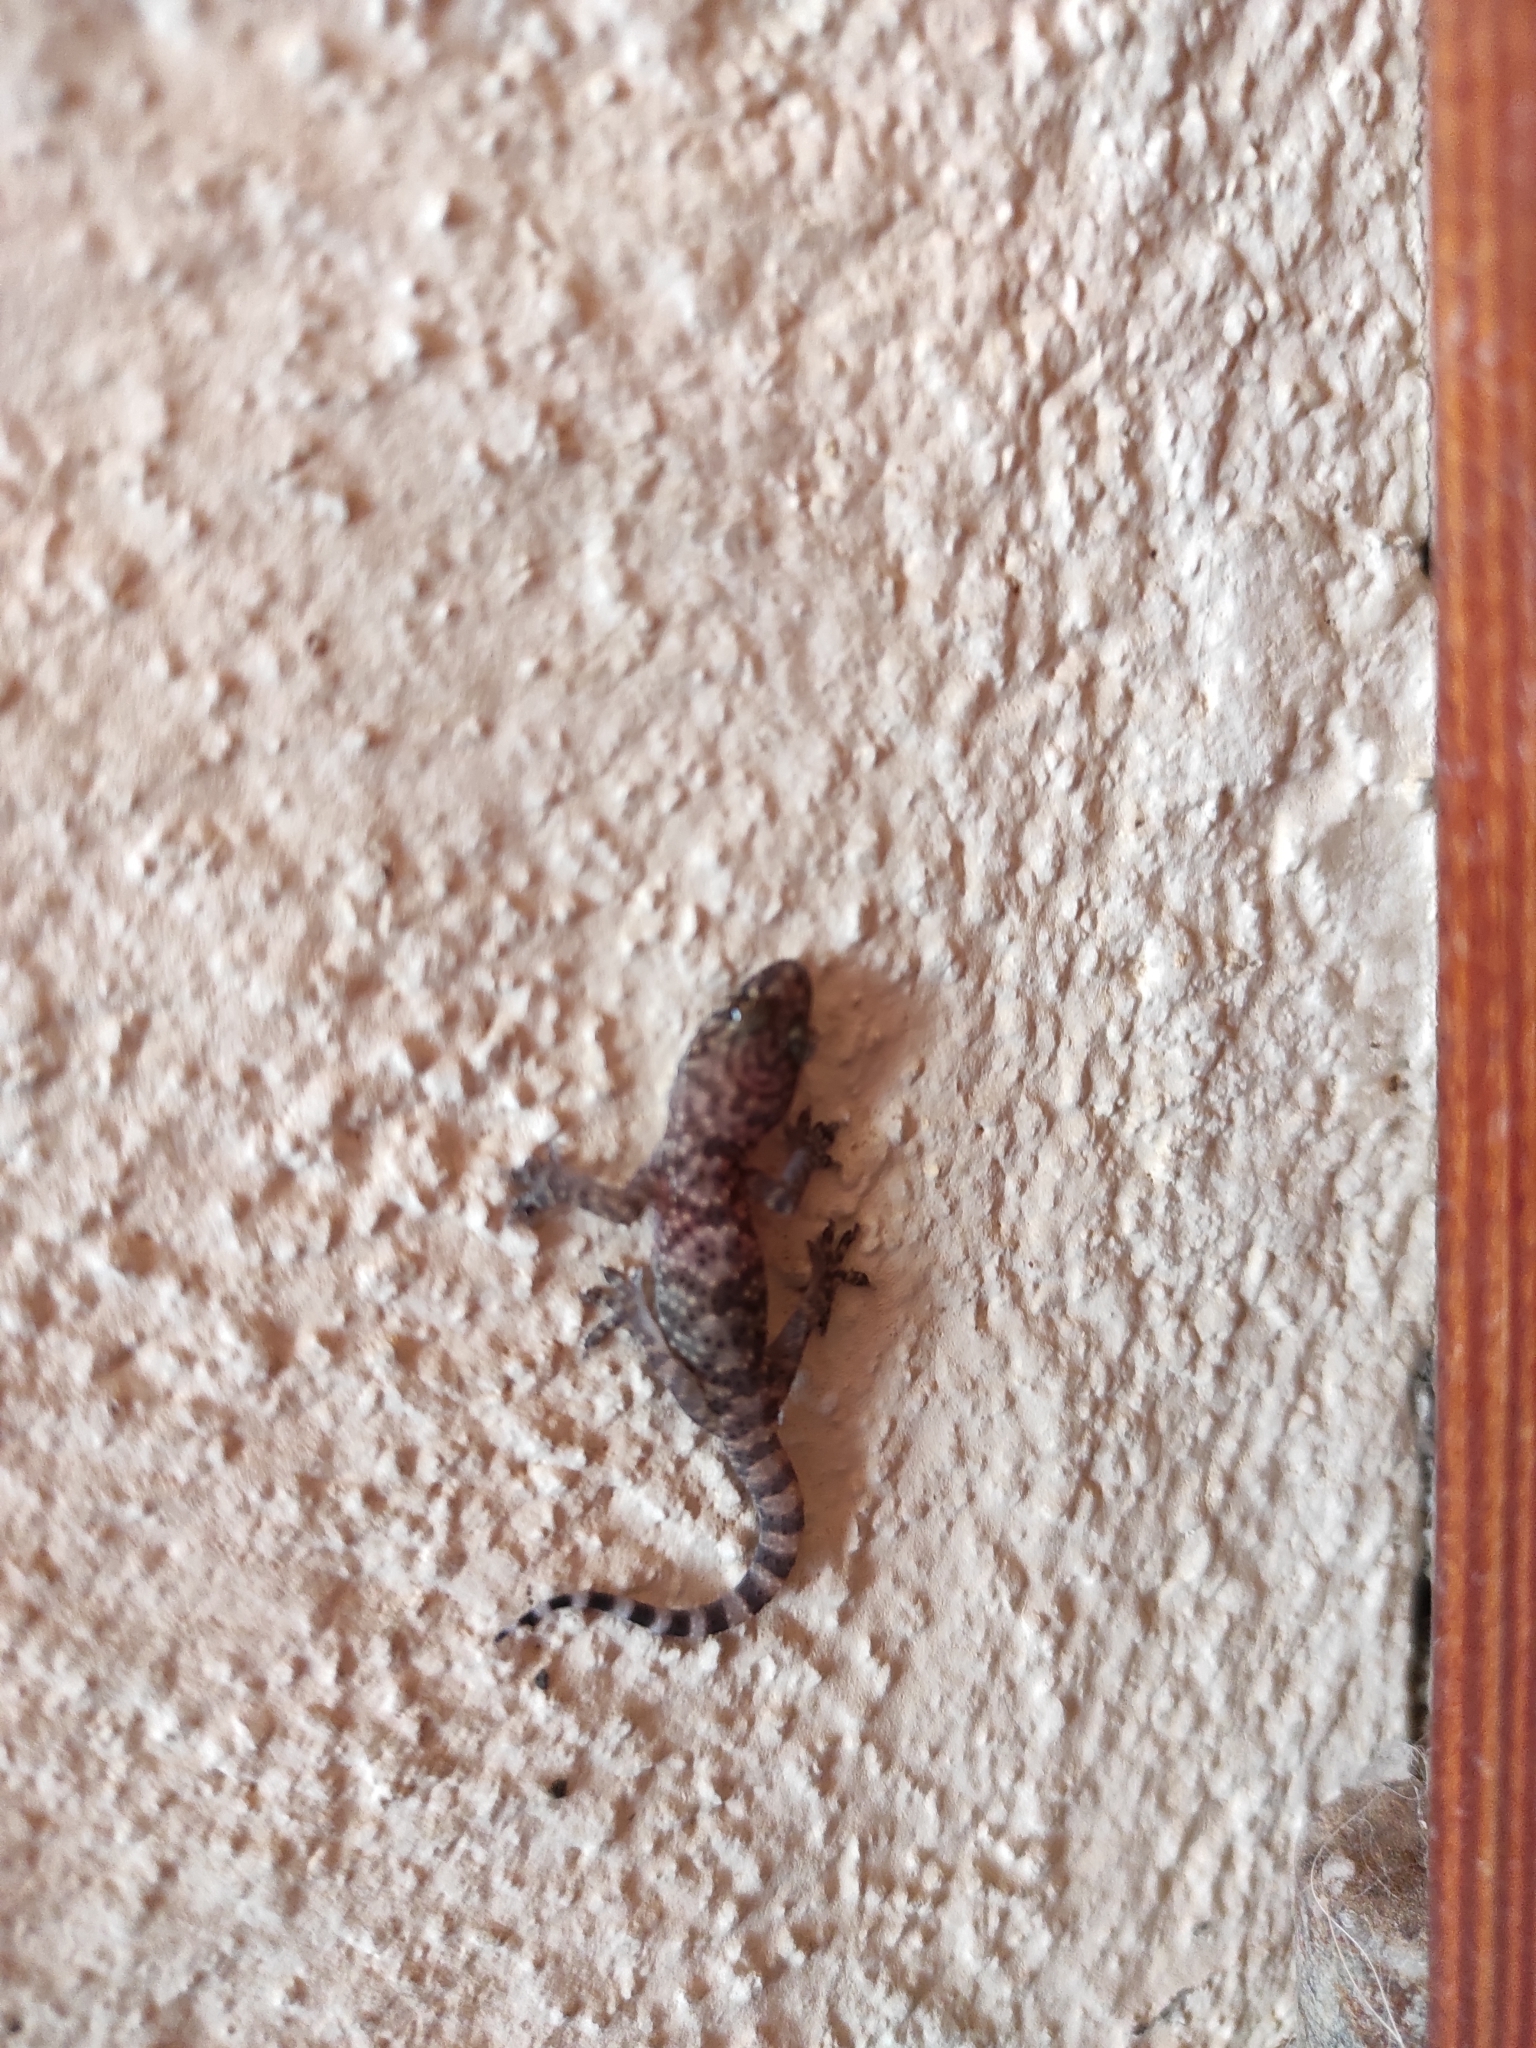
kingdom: Animalia
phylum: Chordata
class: Squamata
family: Gekkonidae
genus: Hemidactylus
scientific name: Hemidactylus turcicus
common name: Turkish gecko
